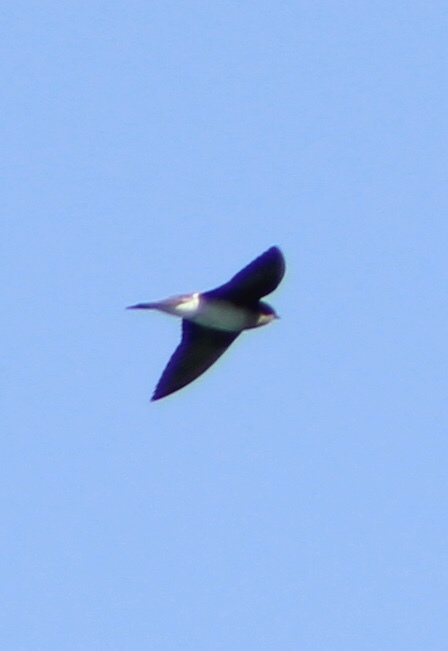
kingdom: Animalia
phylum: Chordata
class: Aves
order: Passeriformes
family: Hirundinidae
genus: Tachycineta
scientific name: Tachycineta bicolor
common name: Tree swallow
